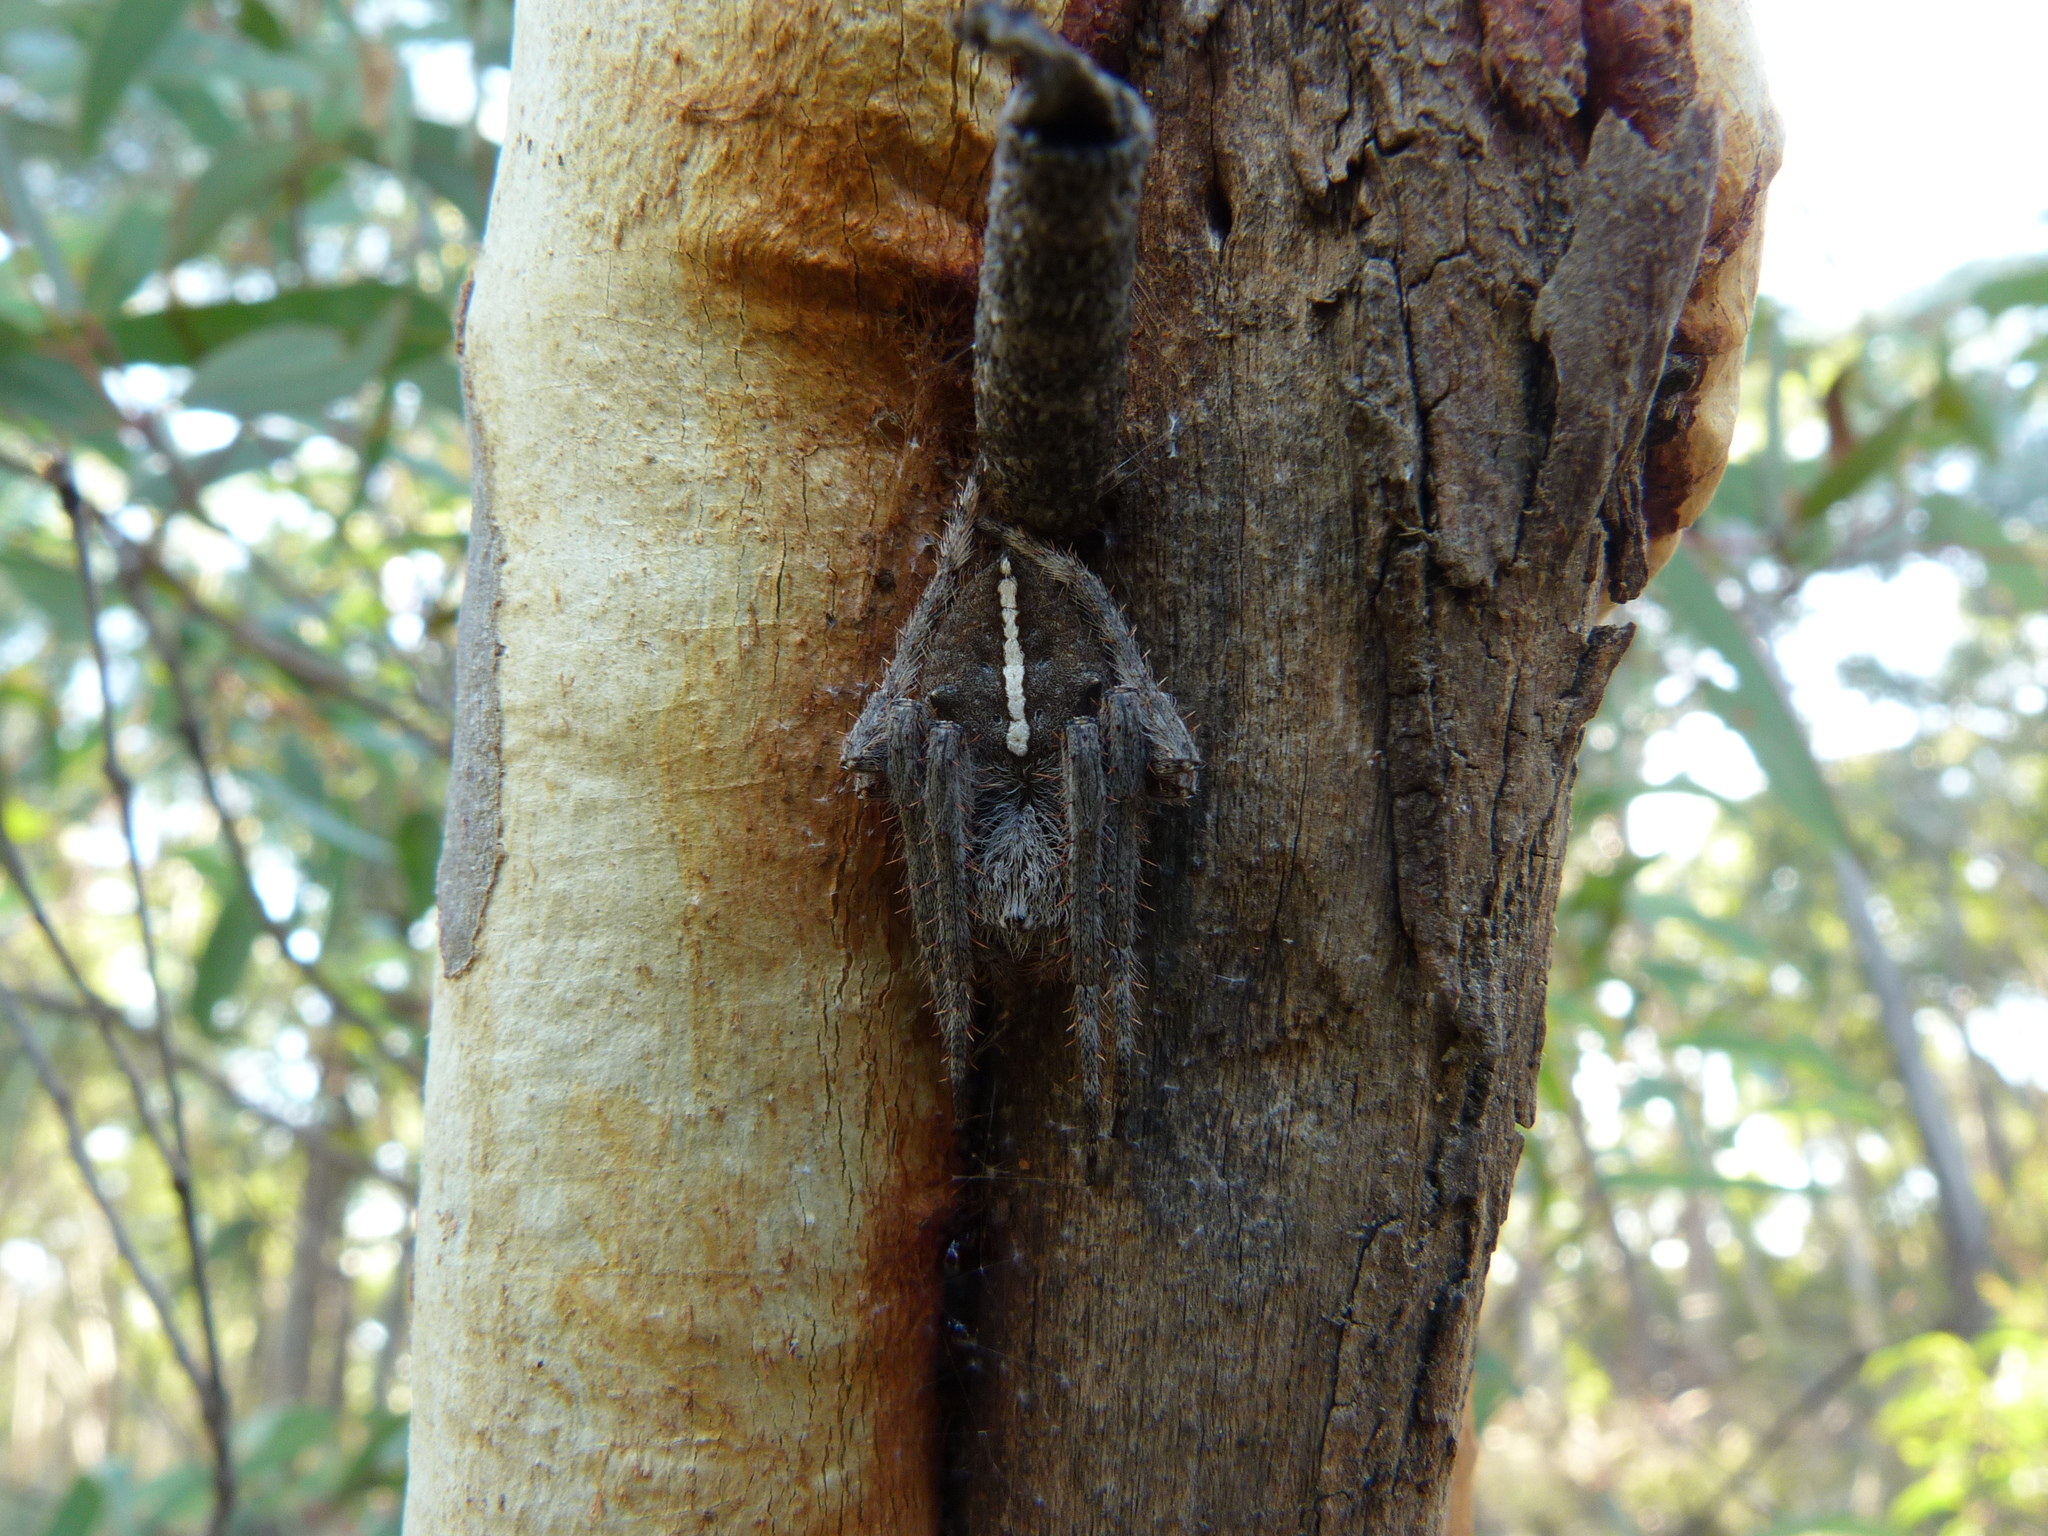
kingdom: Animalia
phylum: Arthropoda
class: Arachnida
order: Araneae
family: Araneidae
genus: Hortophora
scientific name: Hortophora biapicata
